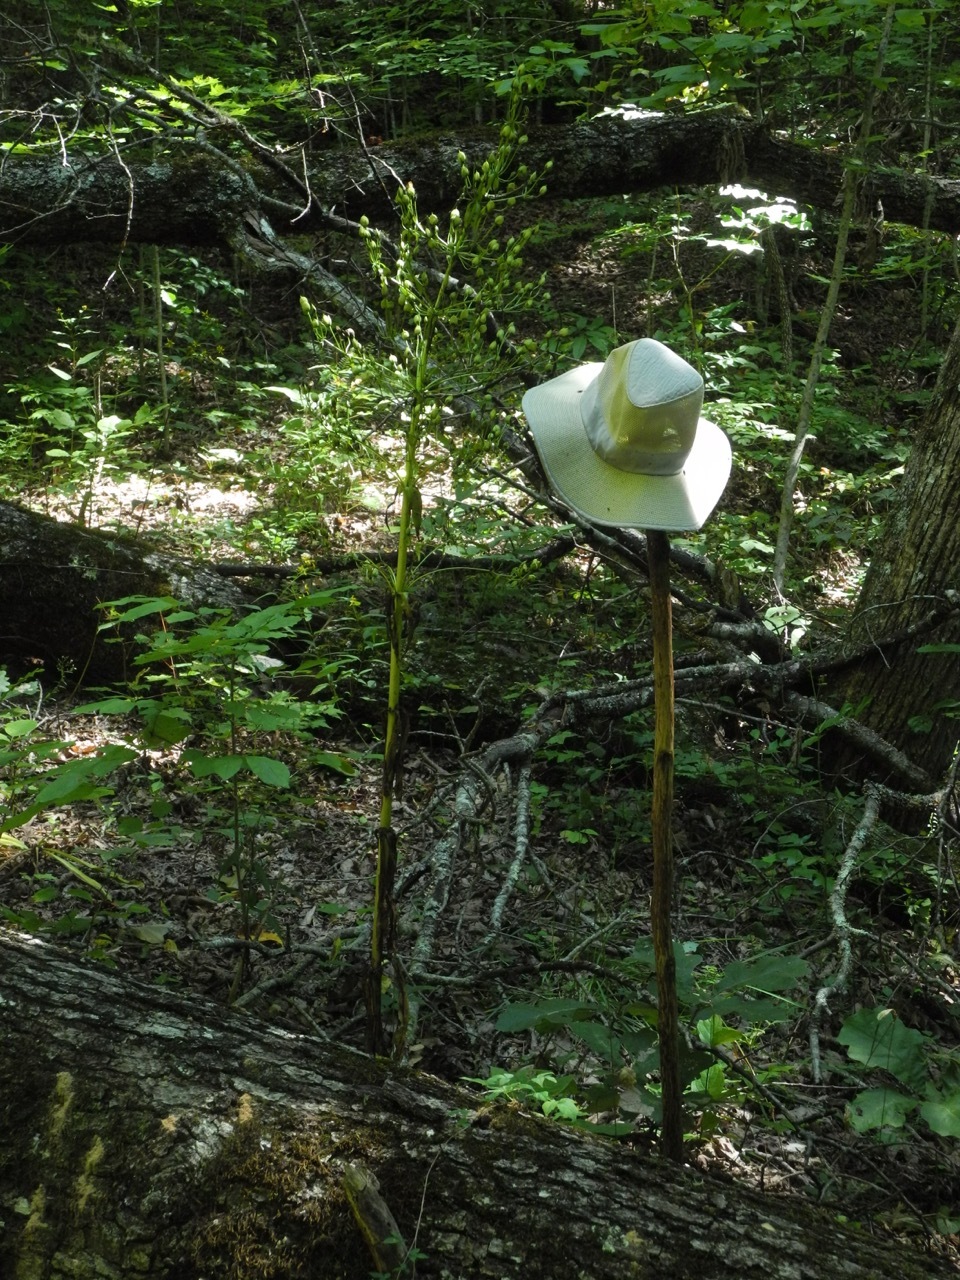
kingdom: Plantae
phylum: Tracheophyta
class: Magnoliopsida
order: Gentianales
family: Gentianaceae
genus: Frasera
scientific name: Frasera caroliniensis
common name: American columbo
